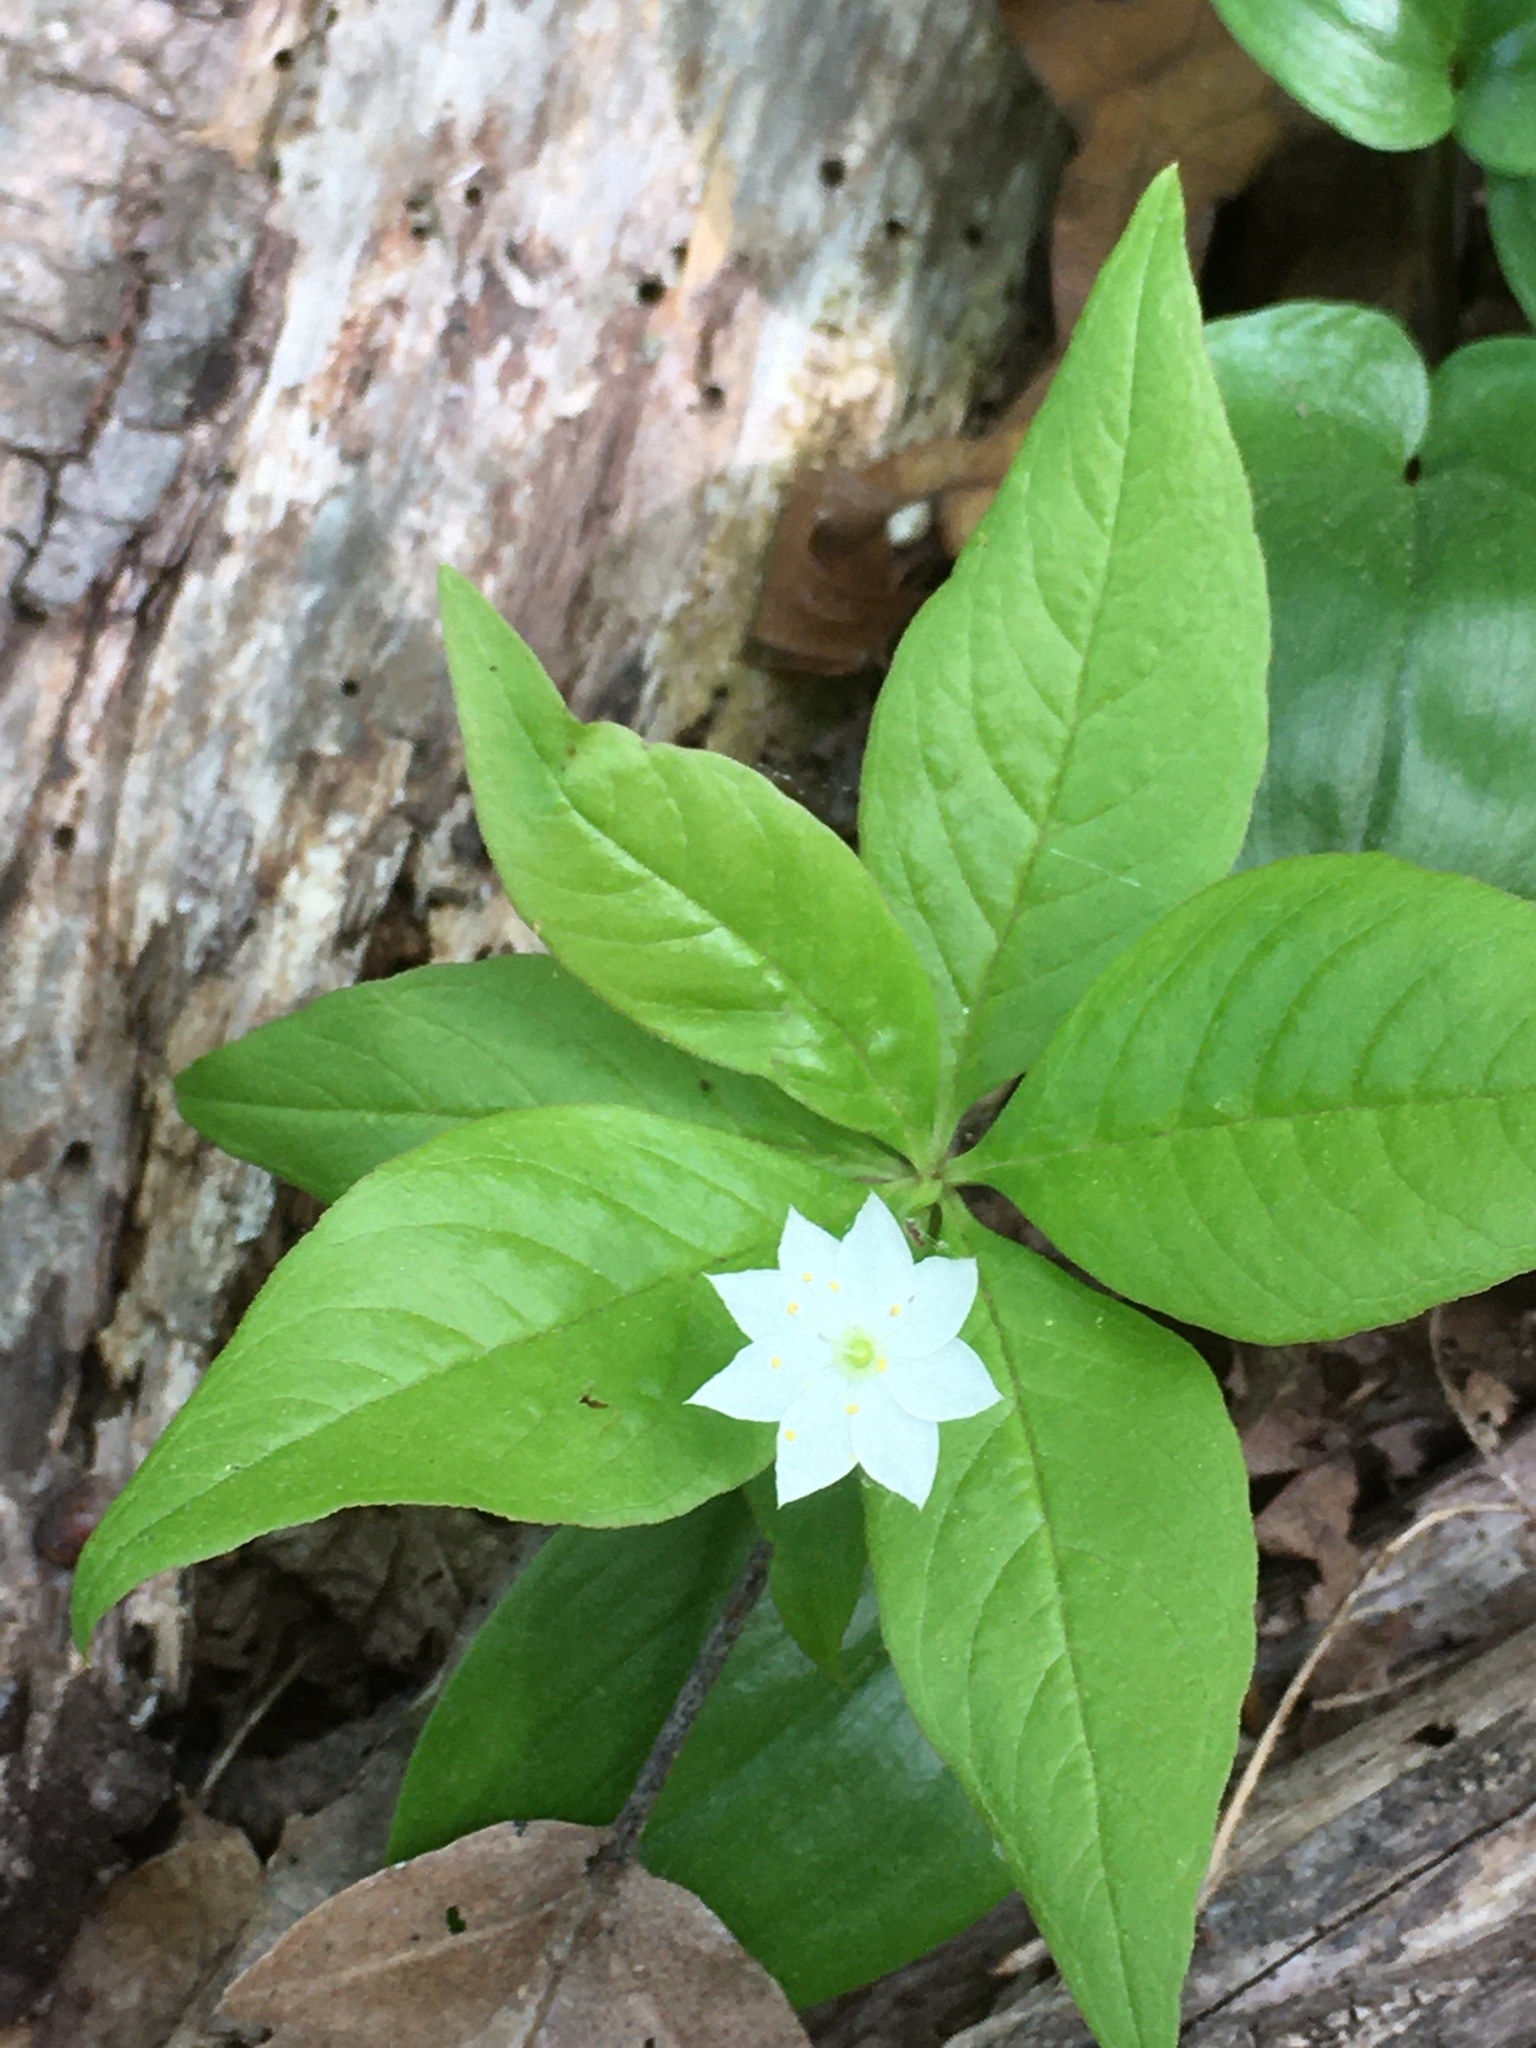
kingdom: Plantae
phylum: Tracheophyta
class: Magnoliopsida
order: Ericales
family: Primulaceae
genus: Lysimachia
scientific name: Lysimachia borealis
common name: American starflower
